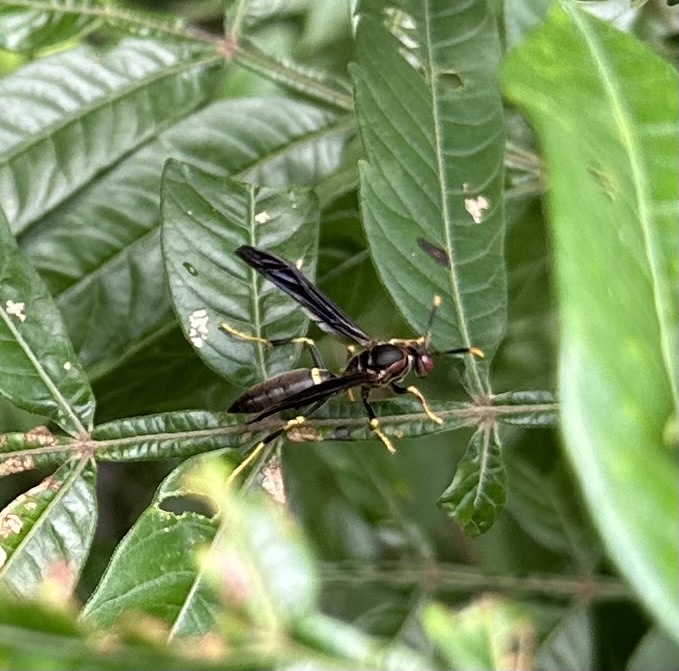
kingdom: Animalia
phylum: Arthropoda
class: Insecta
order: Hymenoptera
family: Eumenidae
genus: Polistes
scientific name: Polistes annularis
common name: Ringed paper wasp
